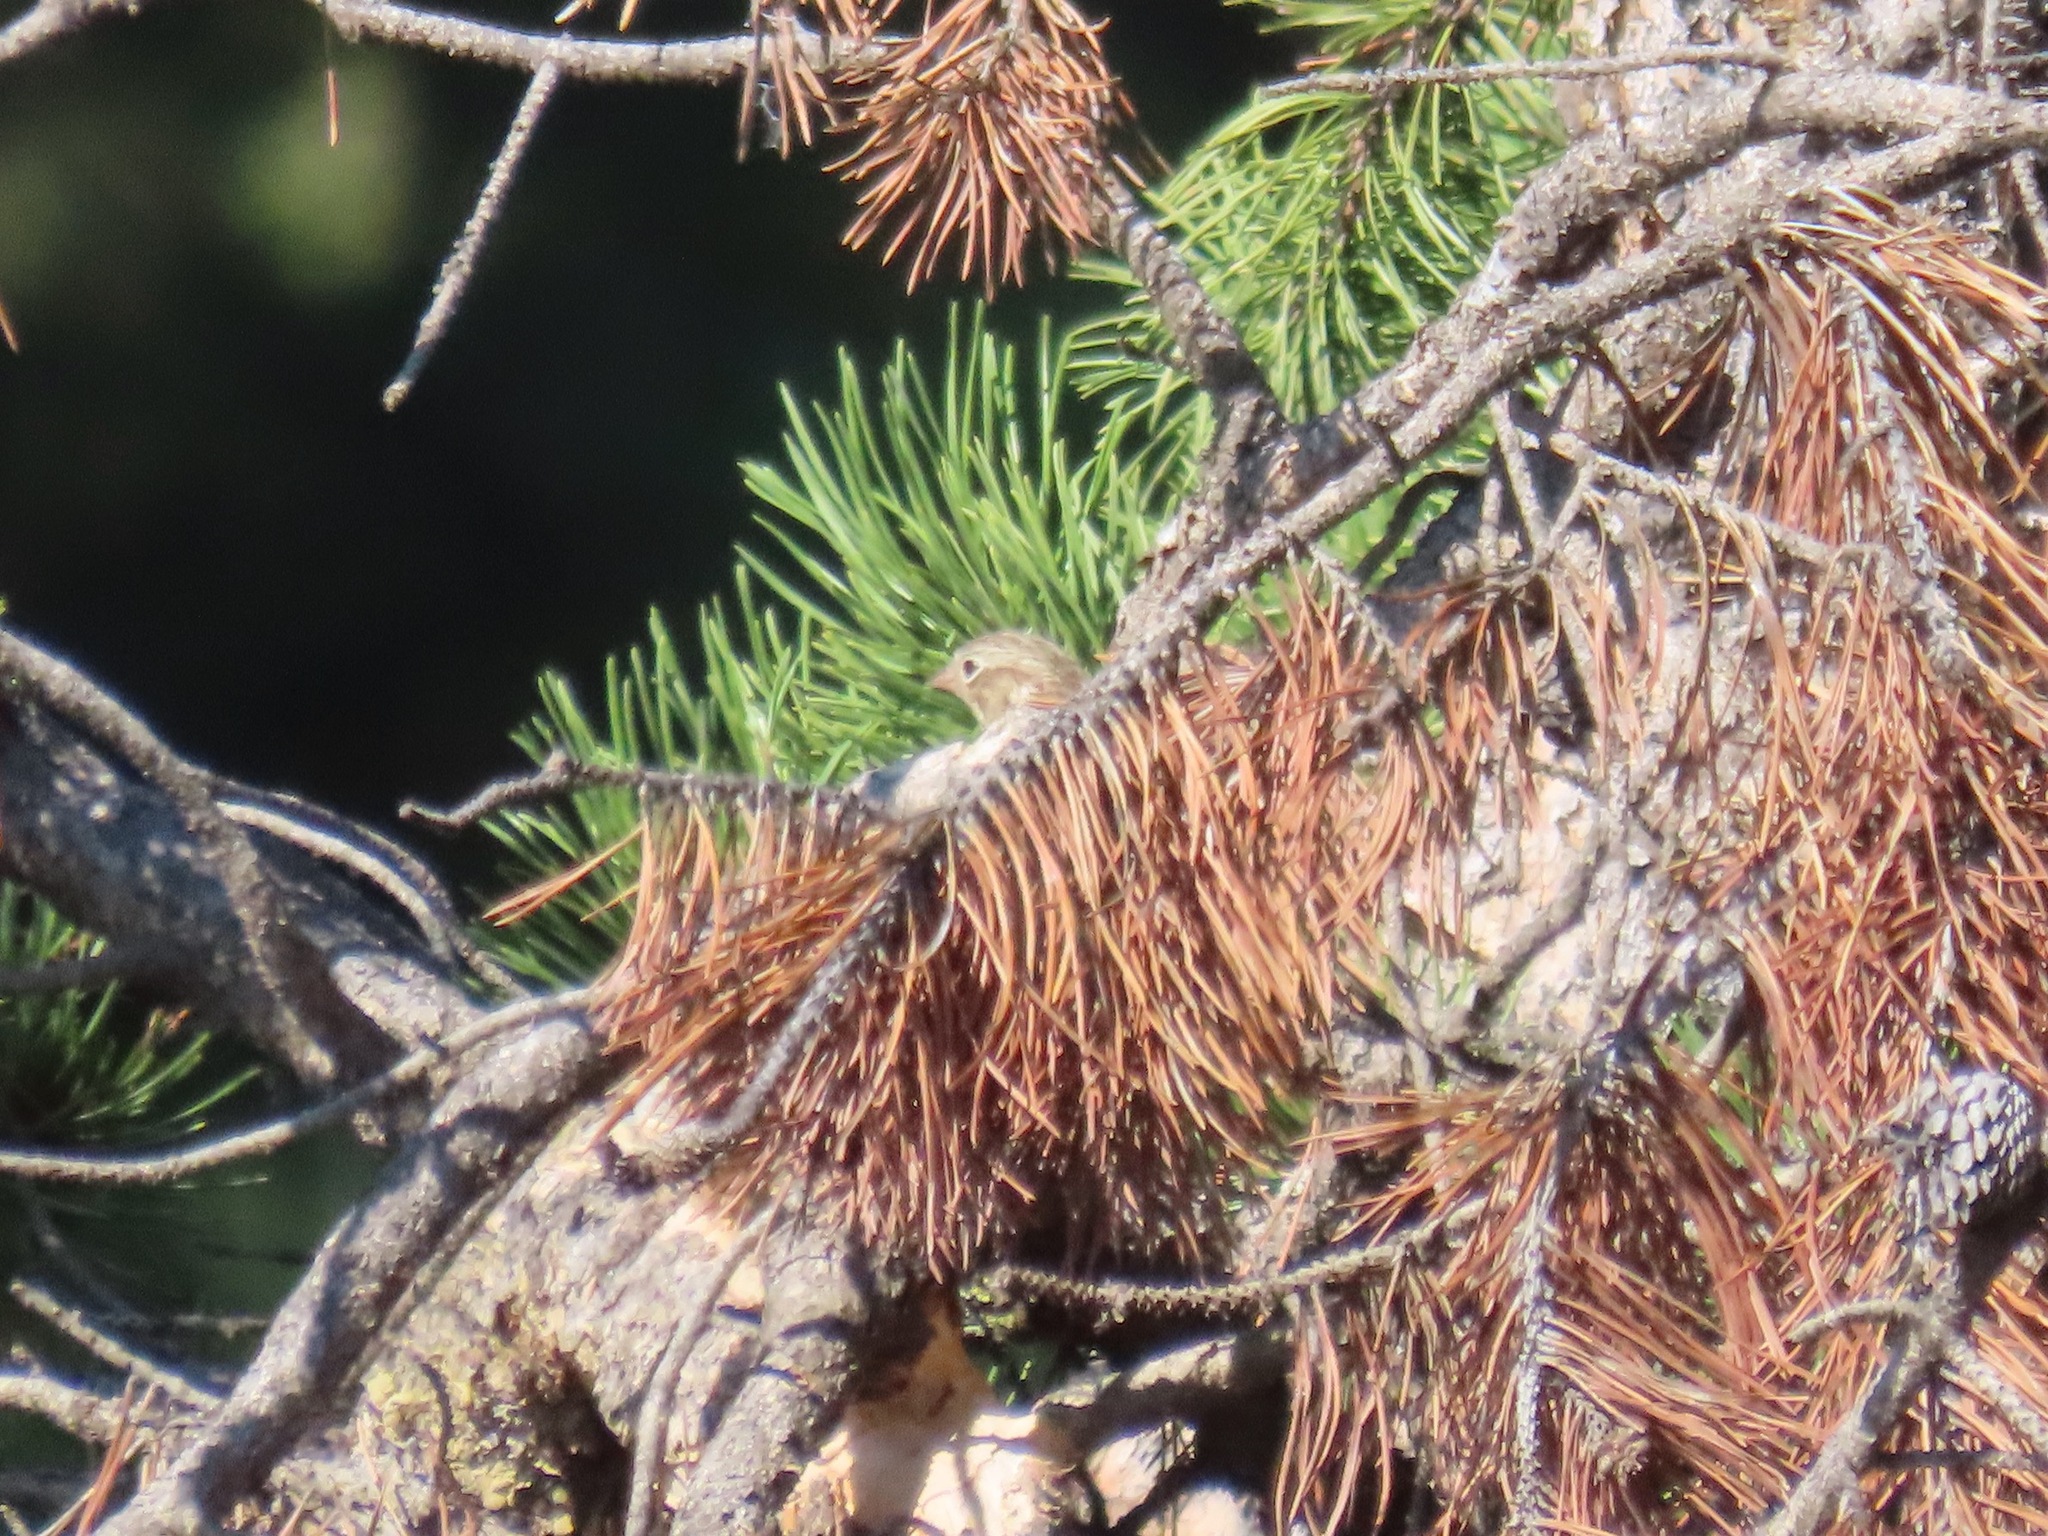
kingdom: Animalia
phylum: Chordata
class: Aves
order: Passeriformes
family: Passerellidae
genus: Pooecetes
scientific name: Pooecetes gramineus
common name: Vesper sparrow
